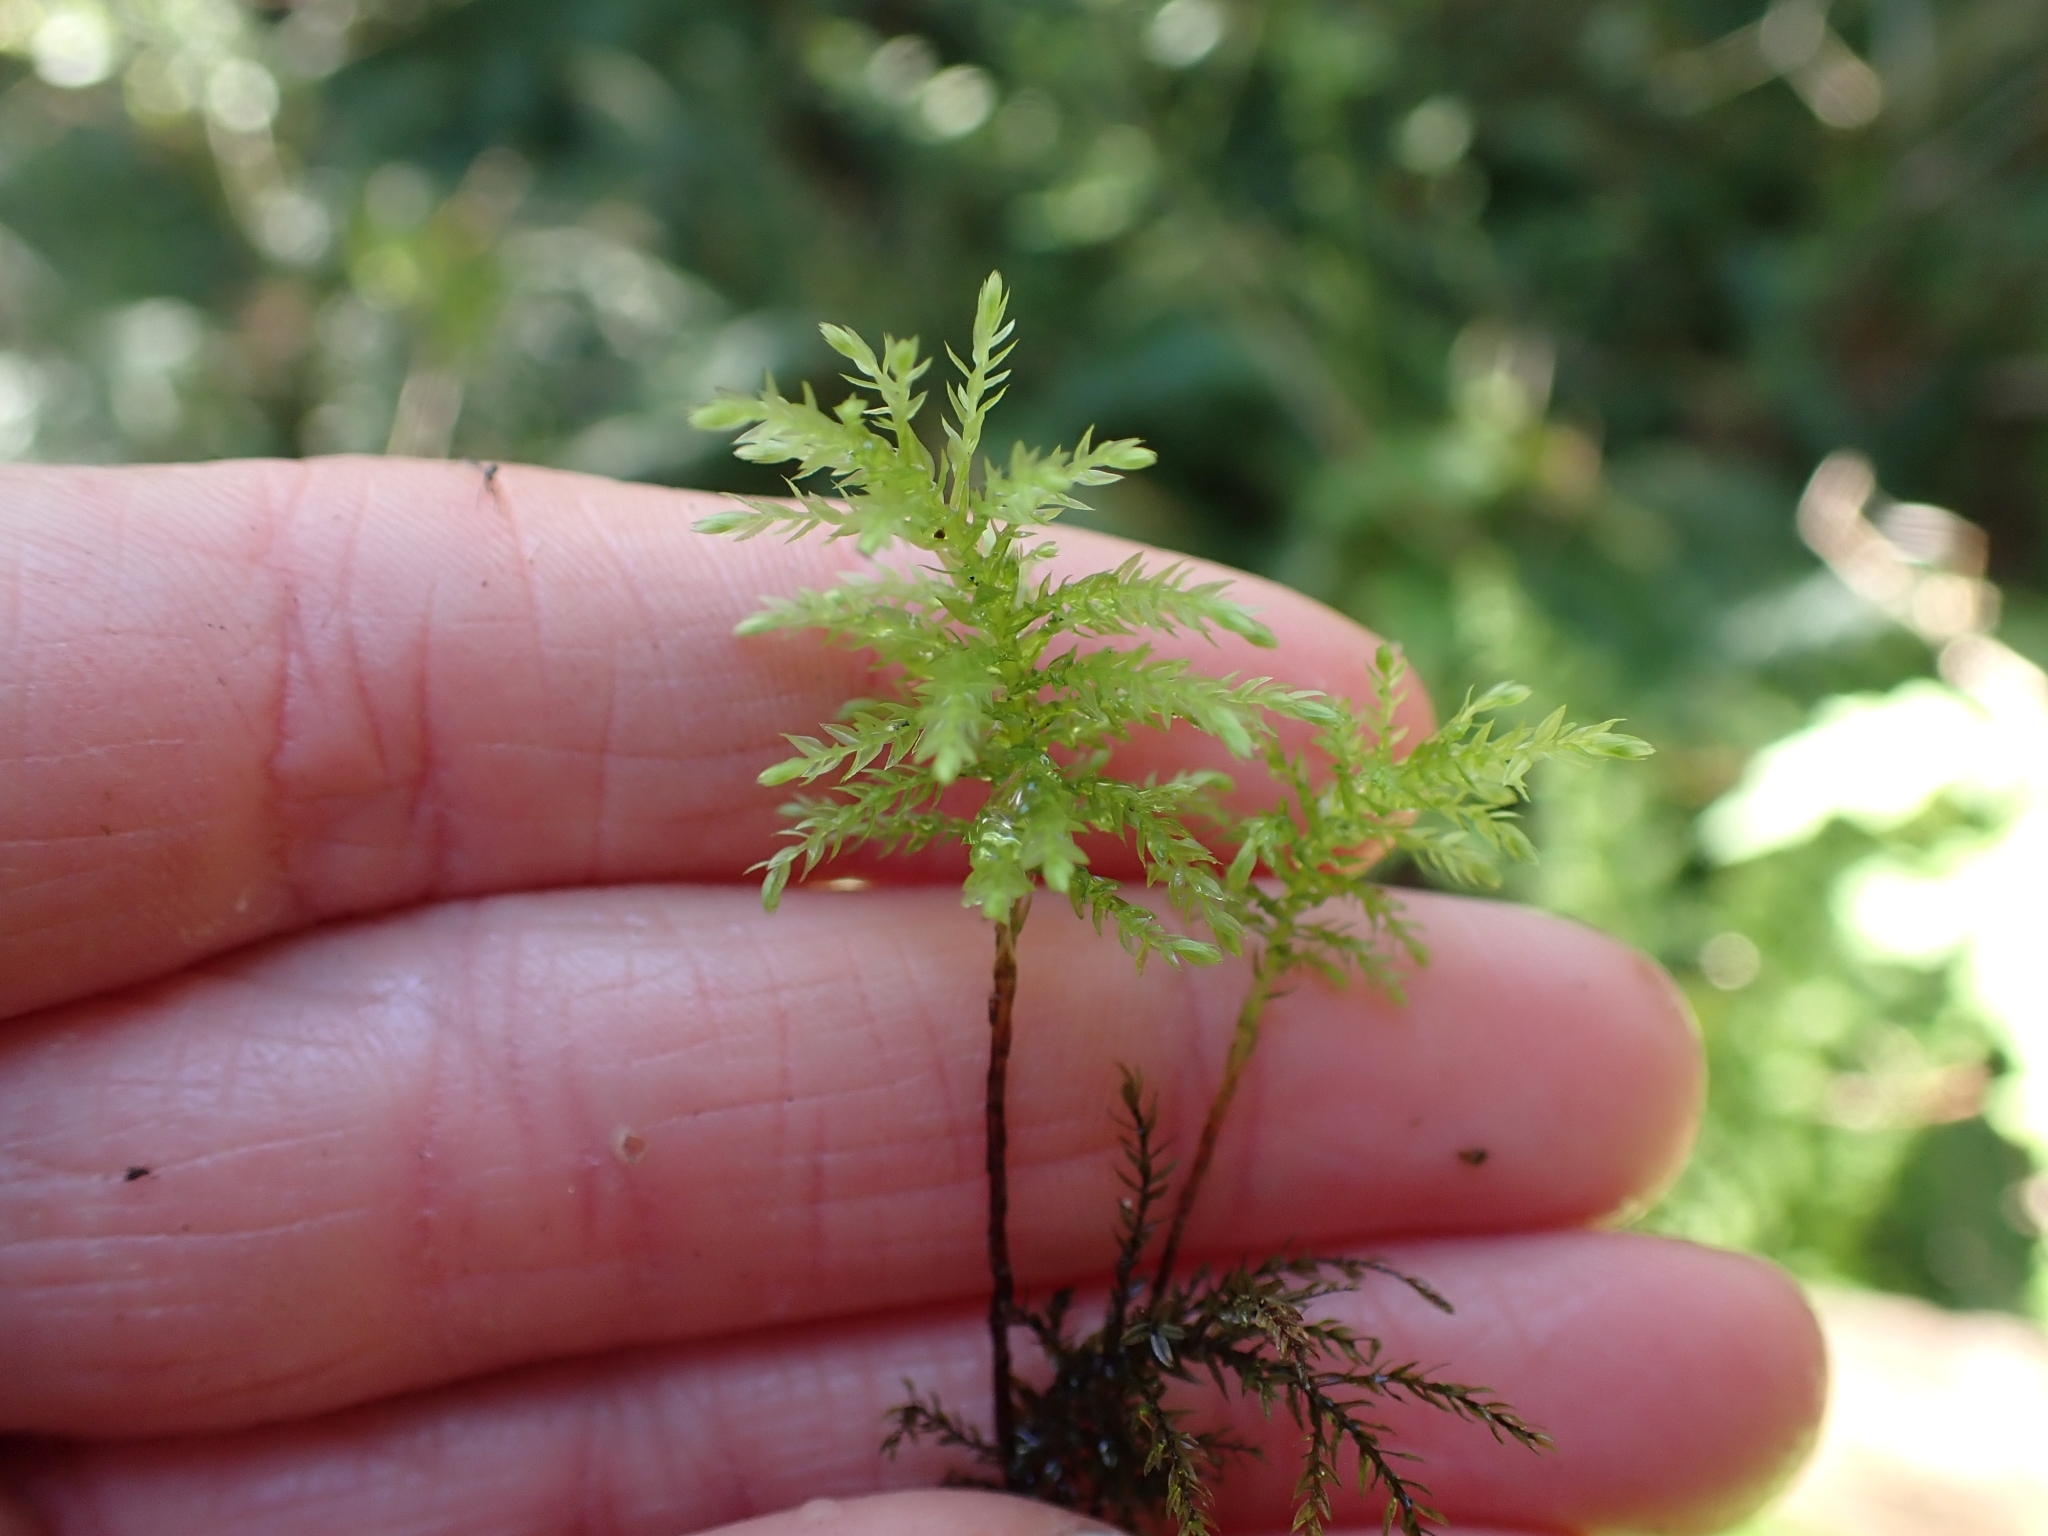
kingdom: Plantae
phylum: Bryophyta
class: Bryopsida
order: Bryales
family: Mniaceae
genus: Leucolepis
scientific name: Leucolepis acanthoneura
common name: Leucolepis umbrella moss
